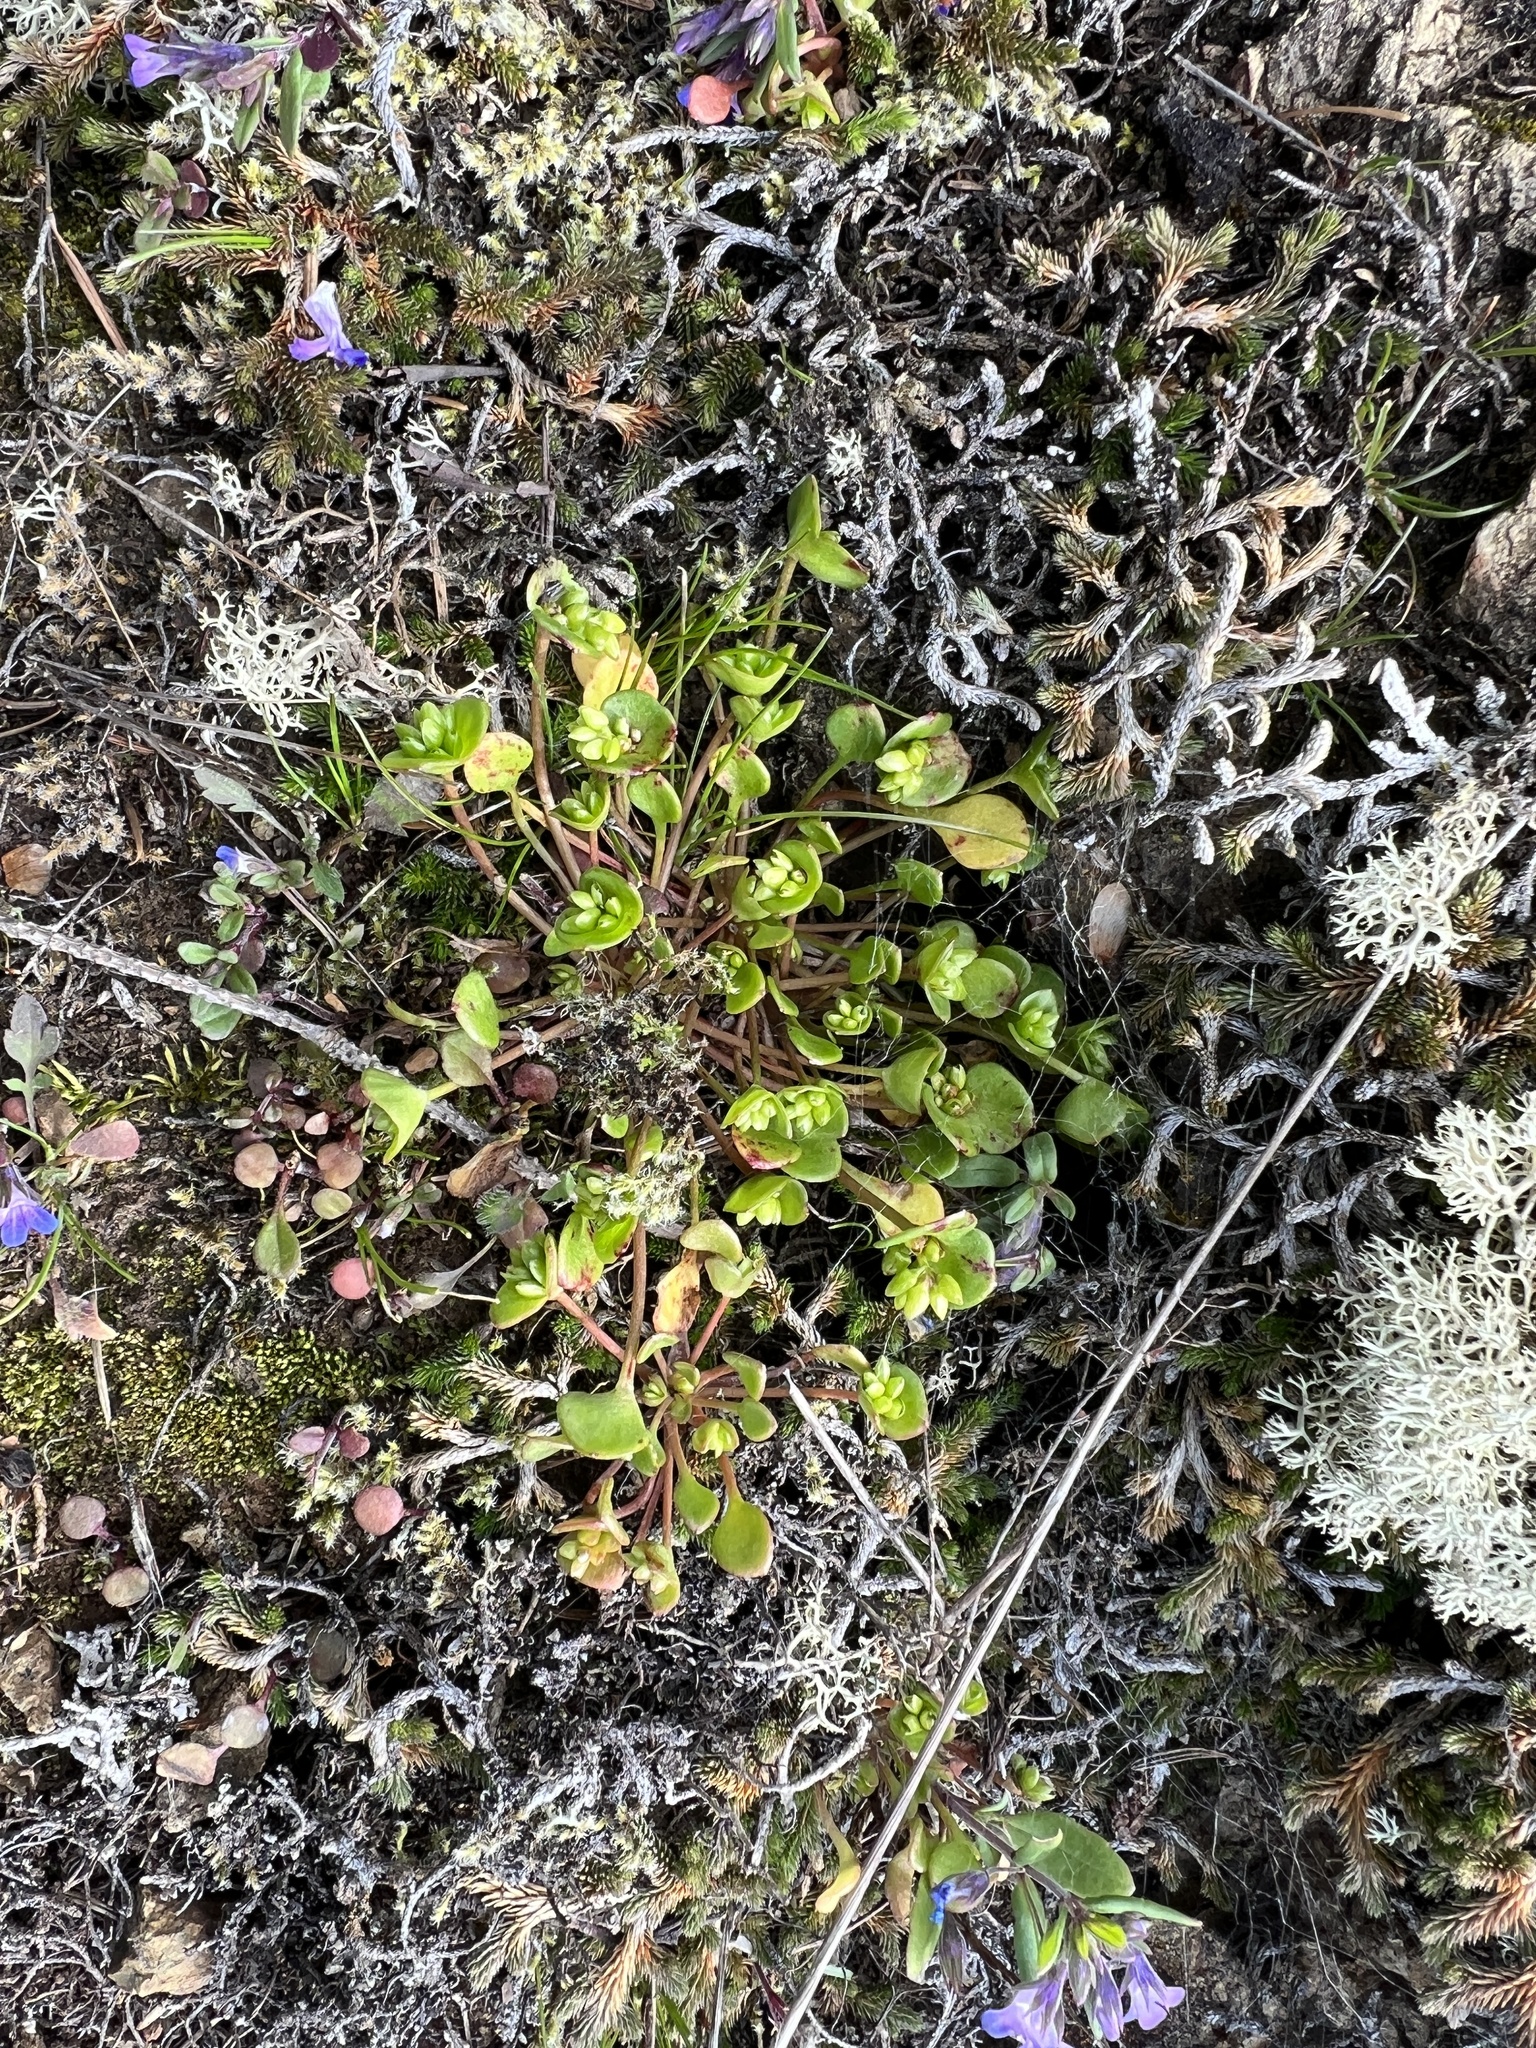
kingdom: Plantae
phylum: Tracheophyta
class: Magnoliopsida
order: Caryophyllales
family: Montiaceae
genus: Claytonia
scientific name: Claytonia rubra
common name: Erubescent miner's-lettuce
